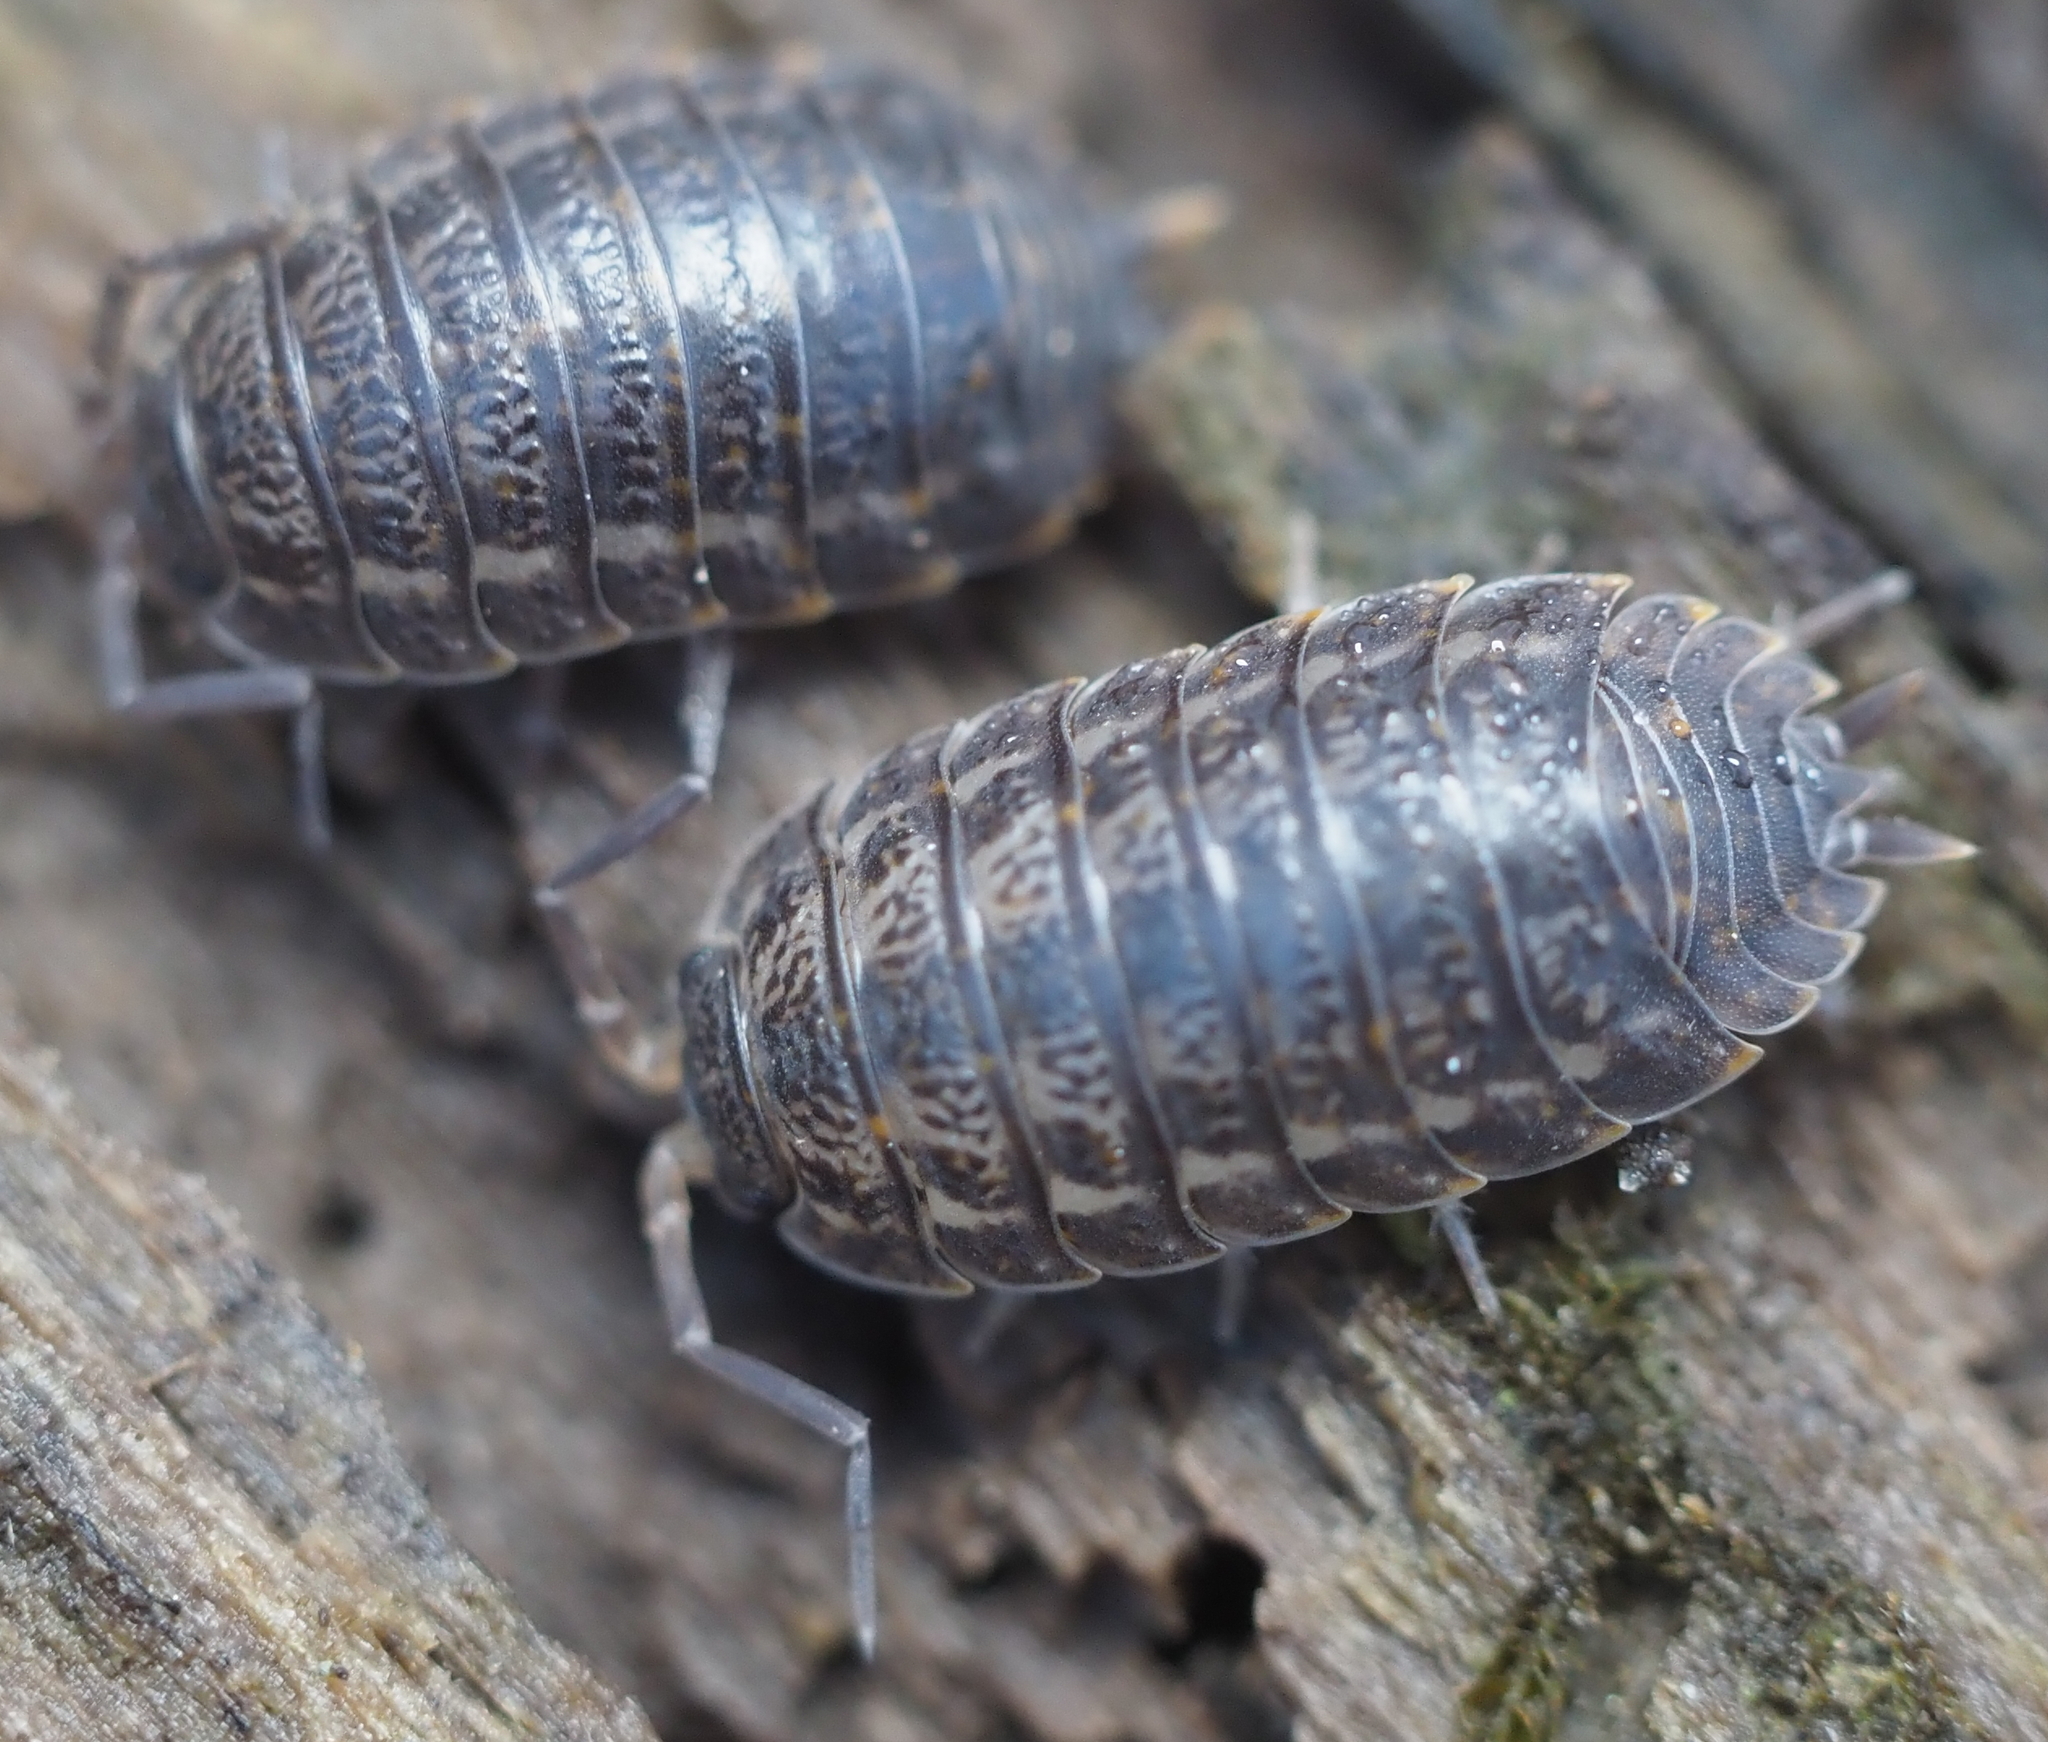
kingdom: Animalia
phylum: Arthropoda
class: Malacostraca
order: Isopoda
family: Trachelipodidae
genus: Trachelipus
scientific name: Trachelipus rathkii
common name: Isopod
